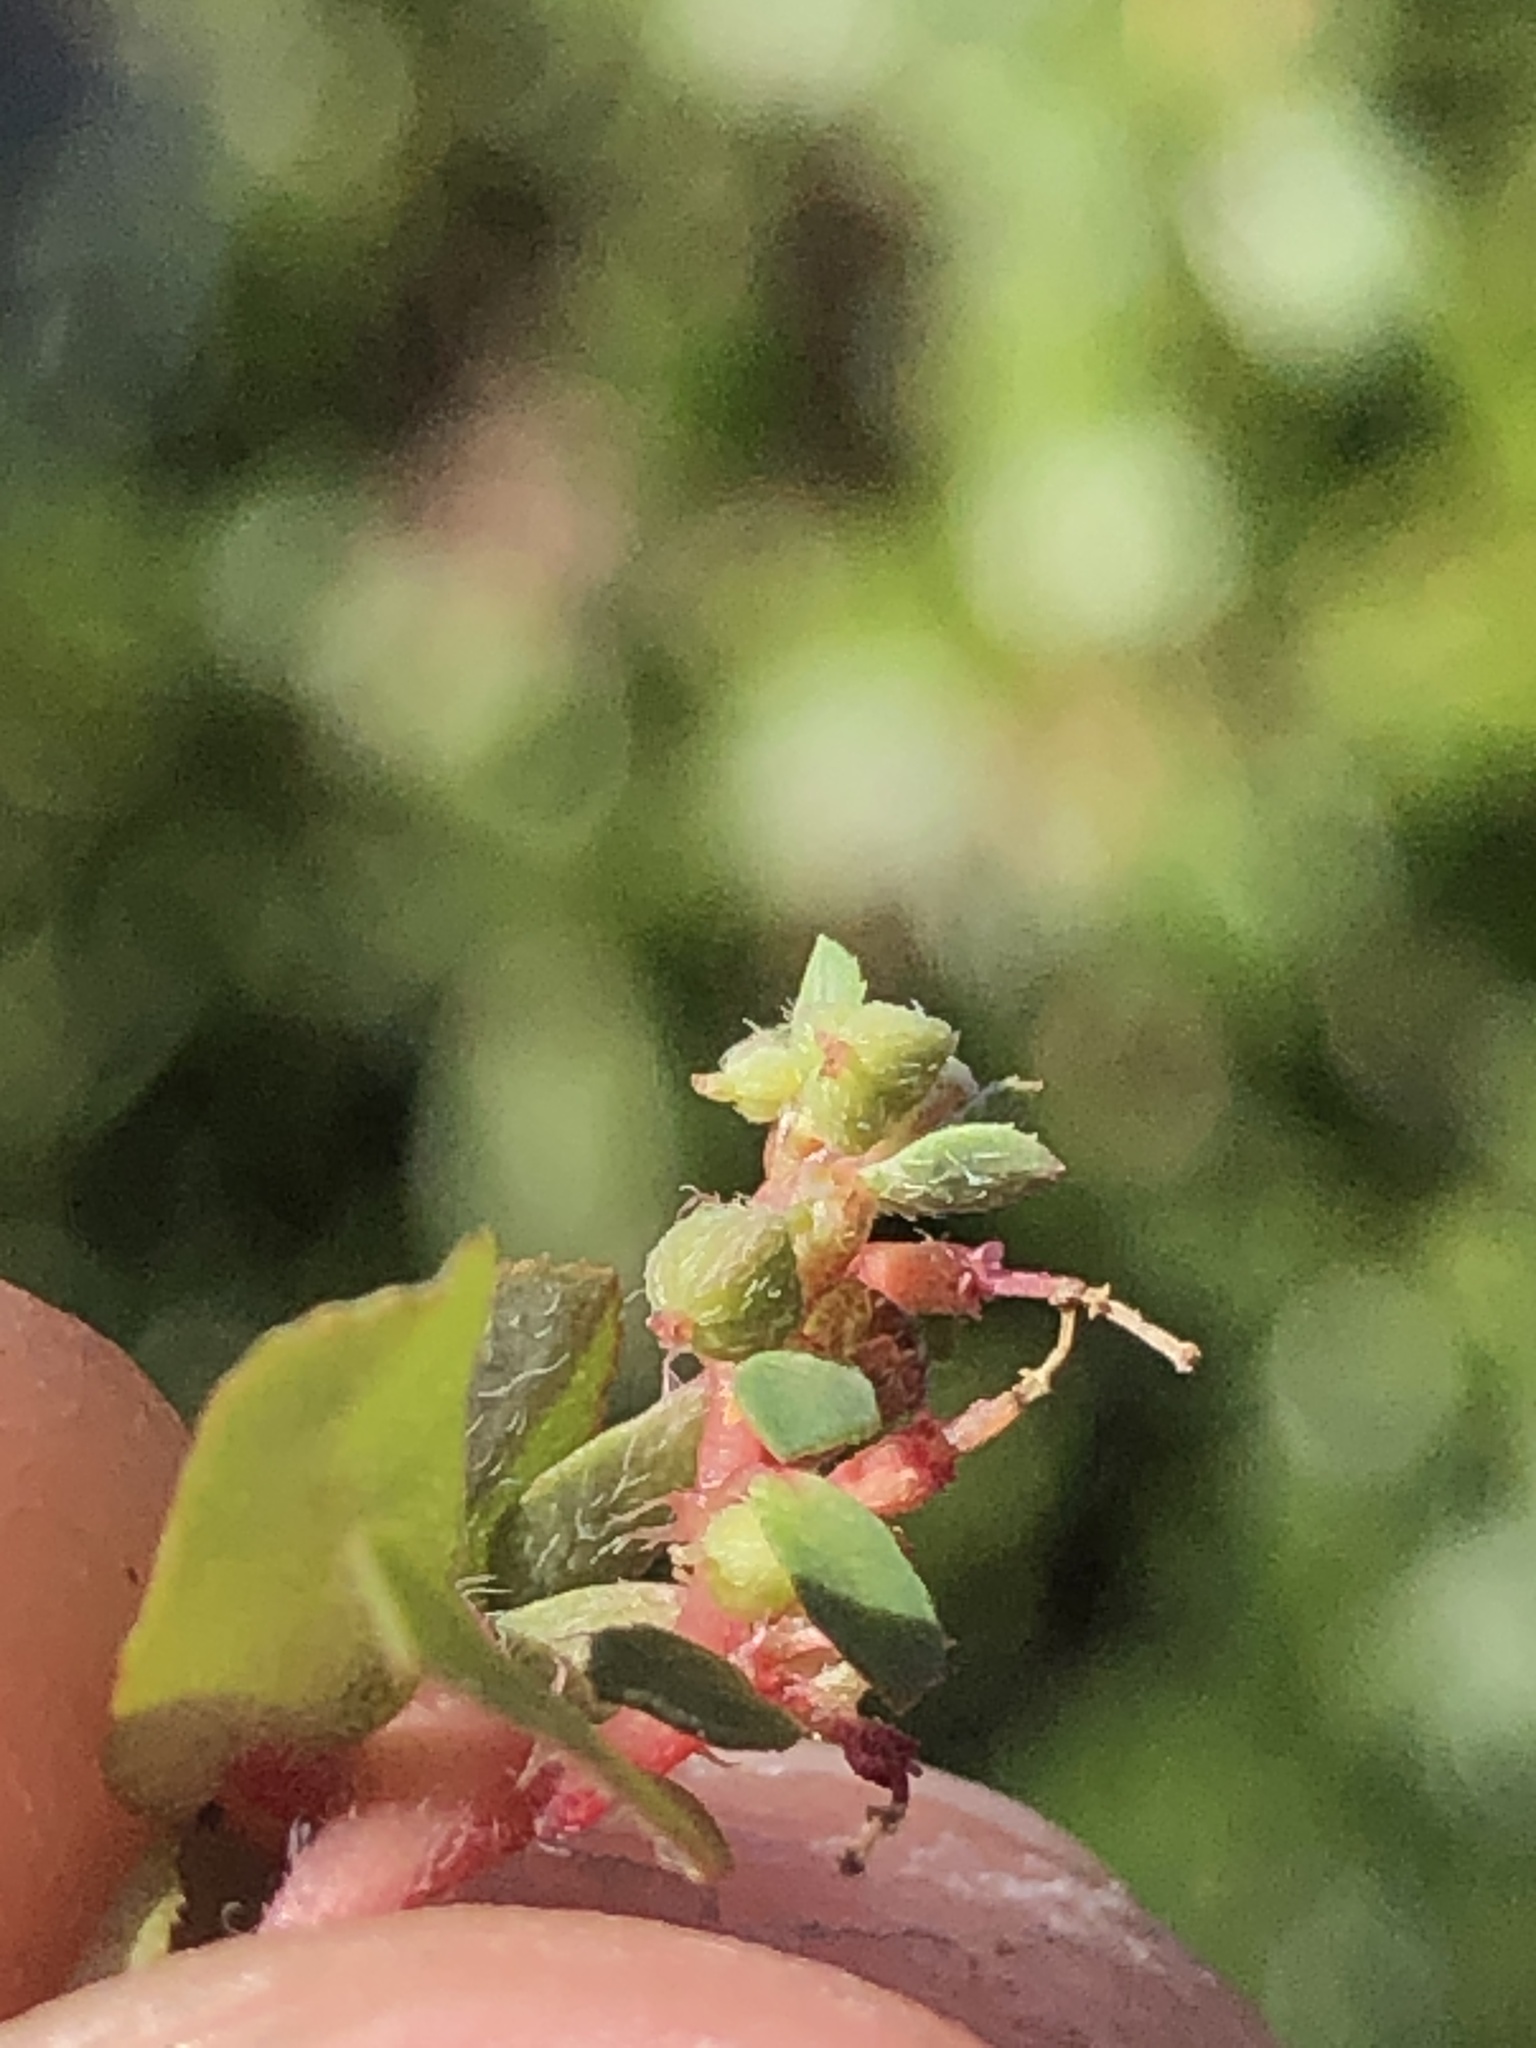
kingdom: Plantae
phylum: Tracheophyta
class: Magnoliopsida
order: Malpighiales
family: Euphorbiaceae
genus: Euphorbia
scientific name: Euphorbia maculata
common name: Spotted spurge
